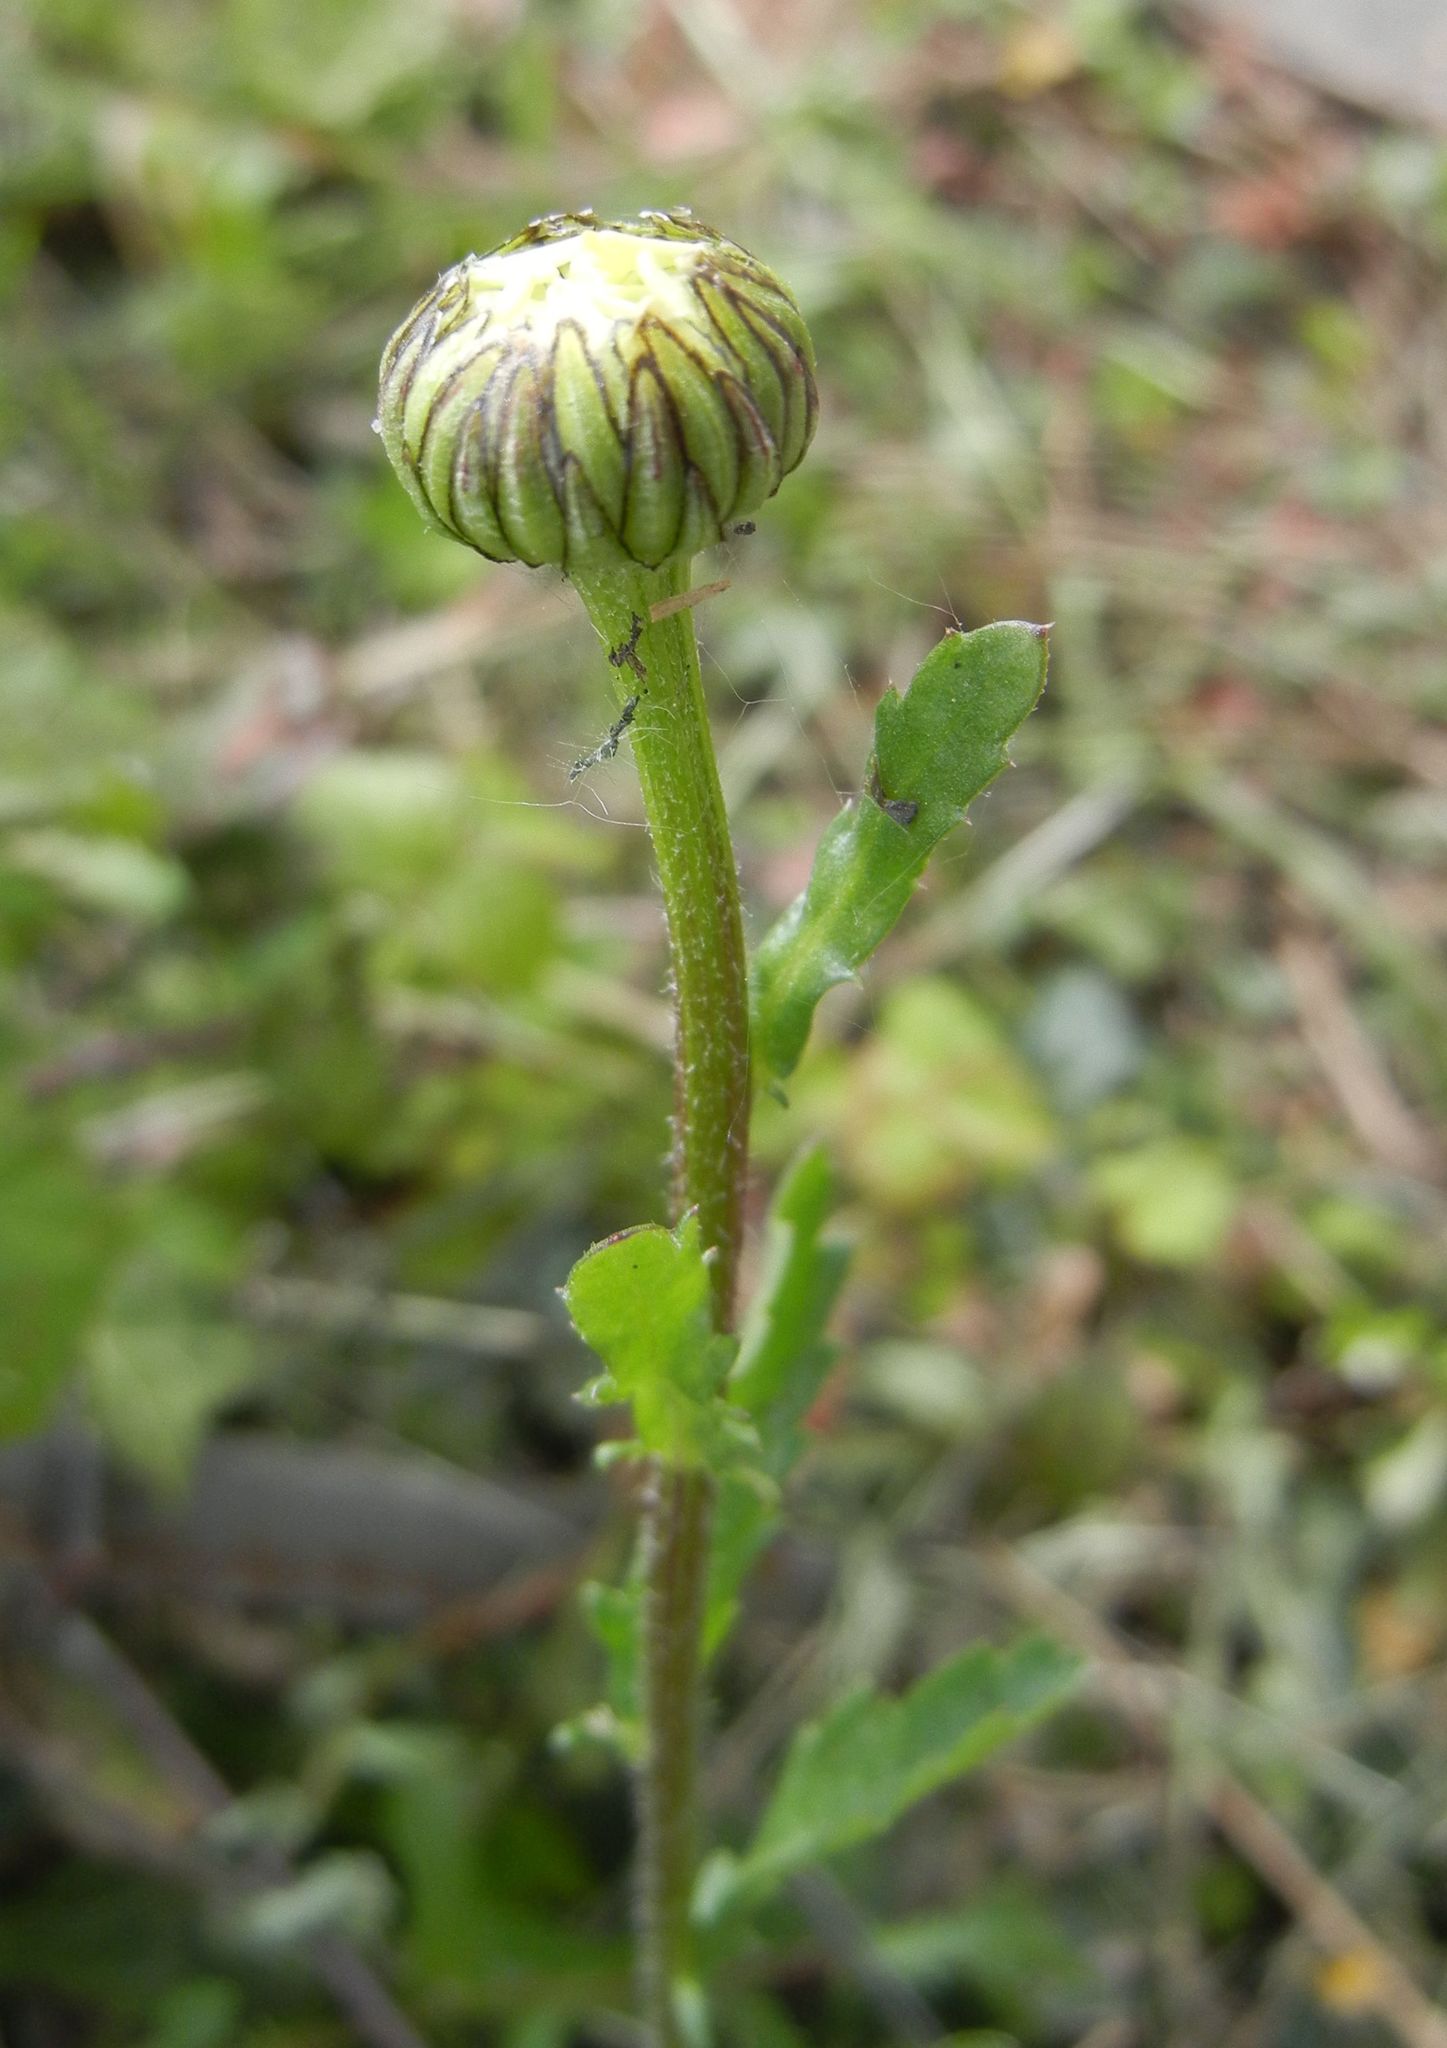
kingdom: Plantae
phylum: Tracheophyta
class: Magnoliopsida
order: Asterales
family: Asteraceae
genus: Leucanthemum
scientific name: Leucanthemum vulgare
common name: Oxeye daisy
